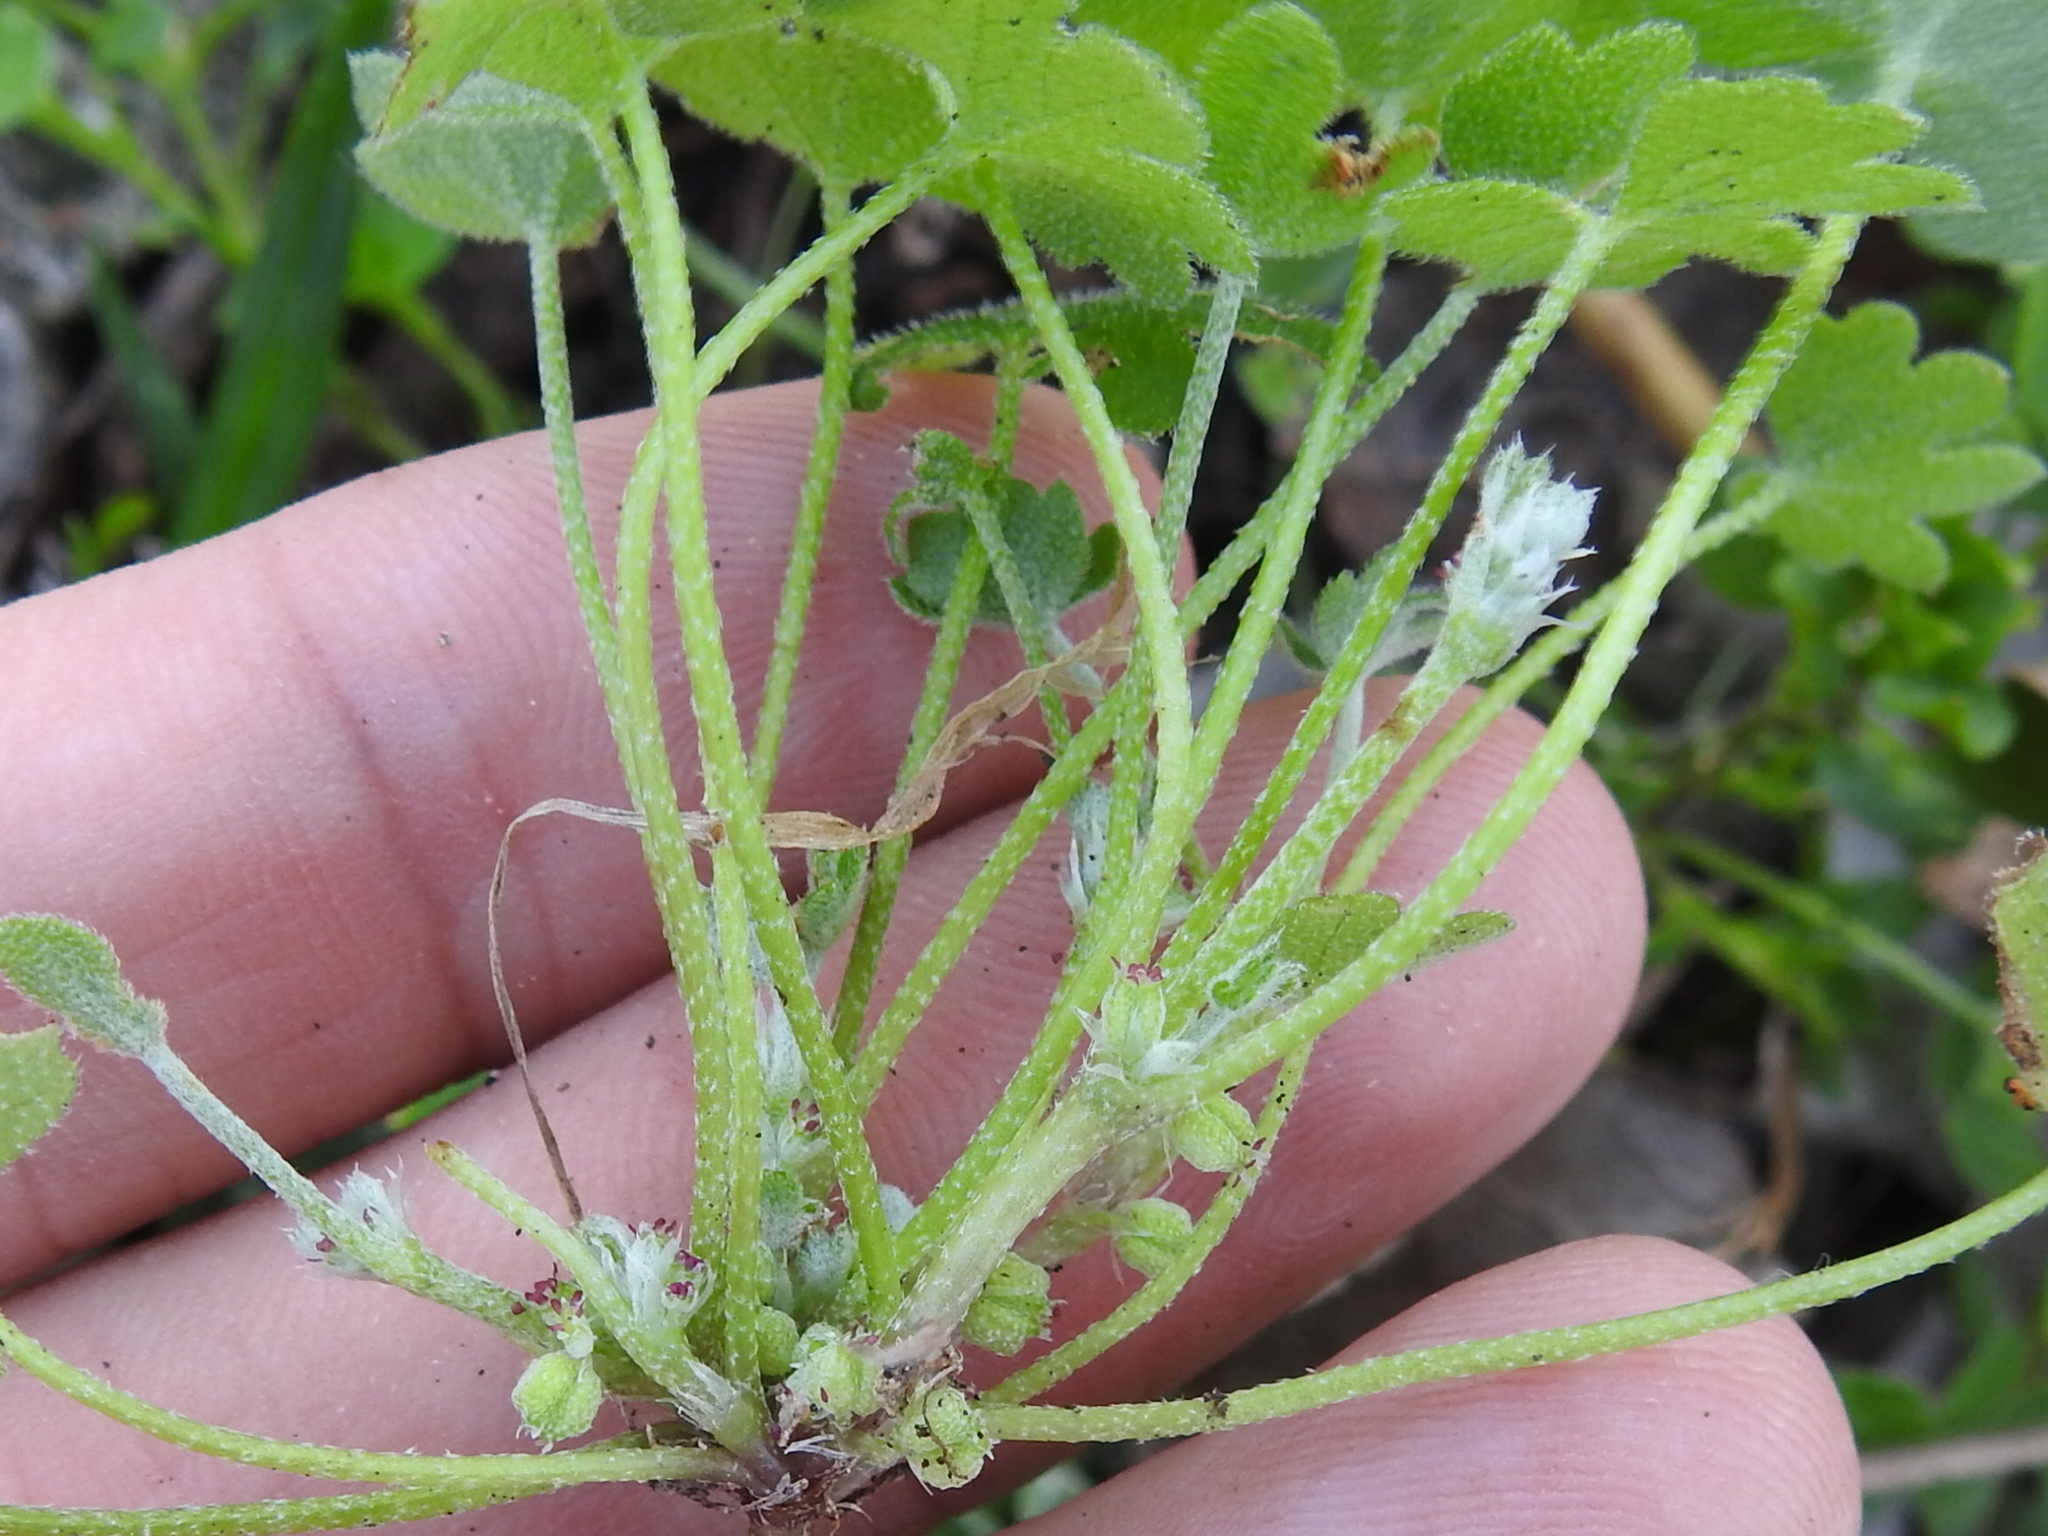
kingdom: Plantae
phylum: Tracheophyta
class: Magnoliopsida
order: Apiales
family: Apiaceae
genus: Bowlesia
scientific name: Bowlesia incana
